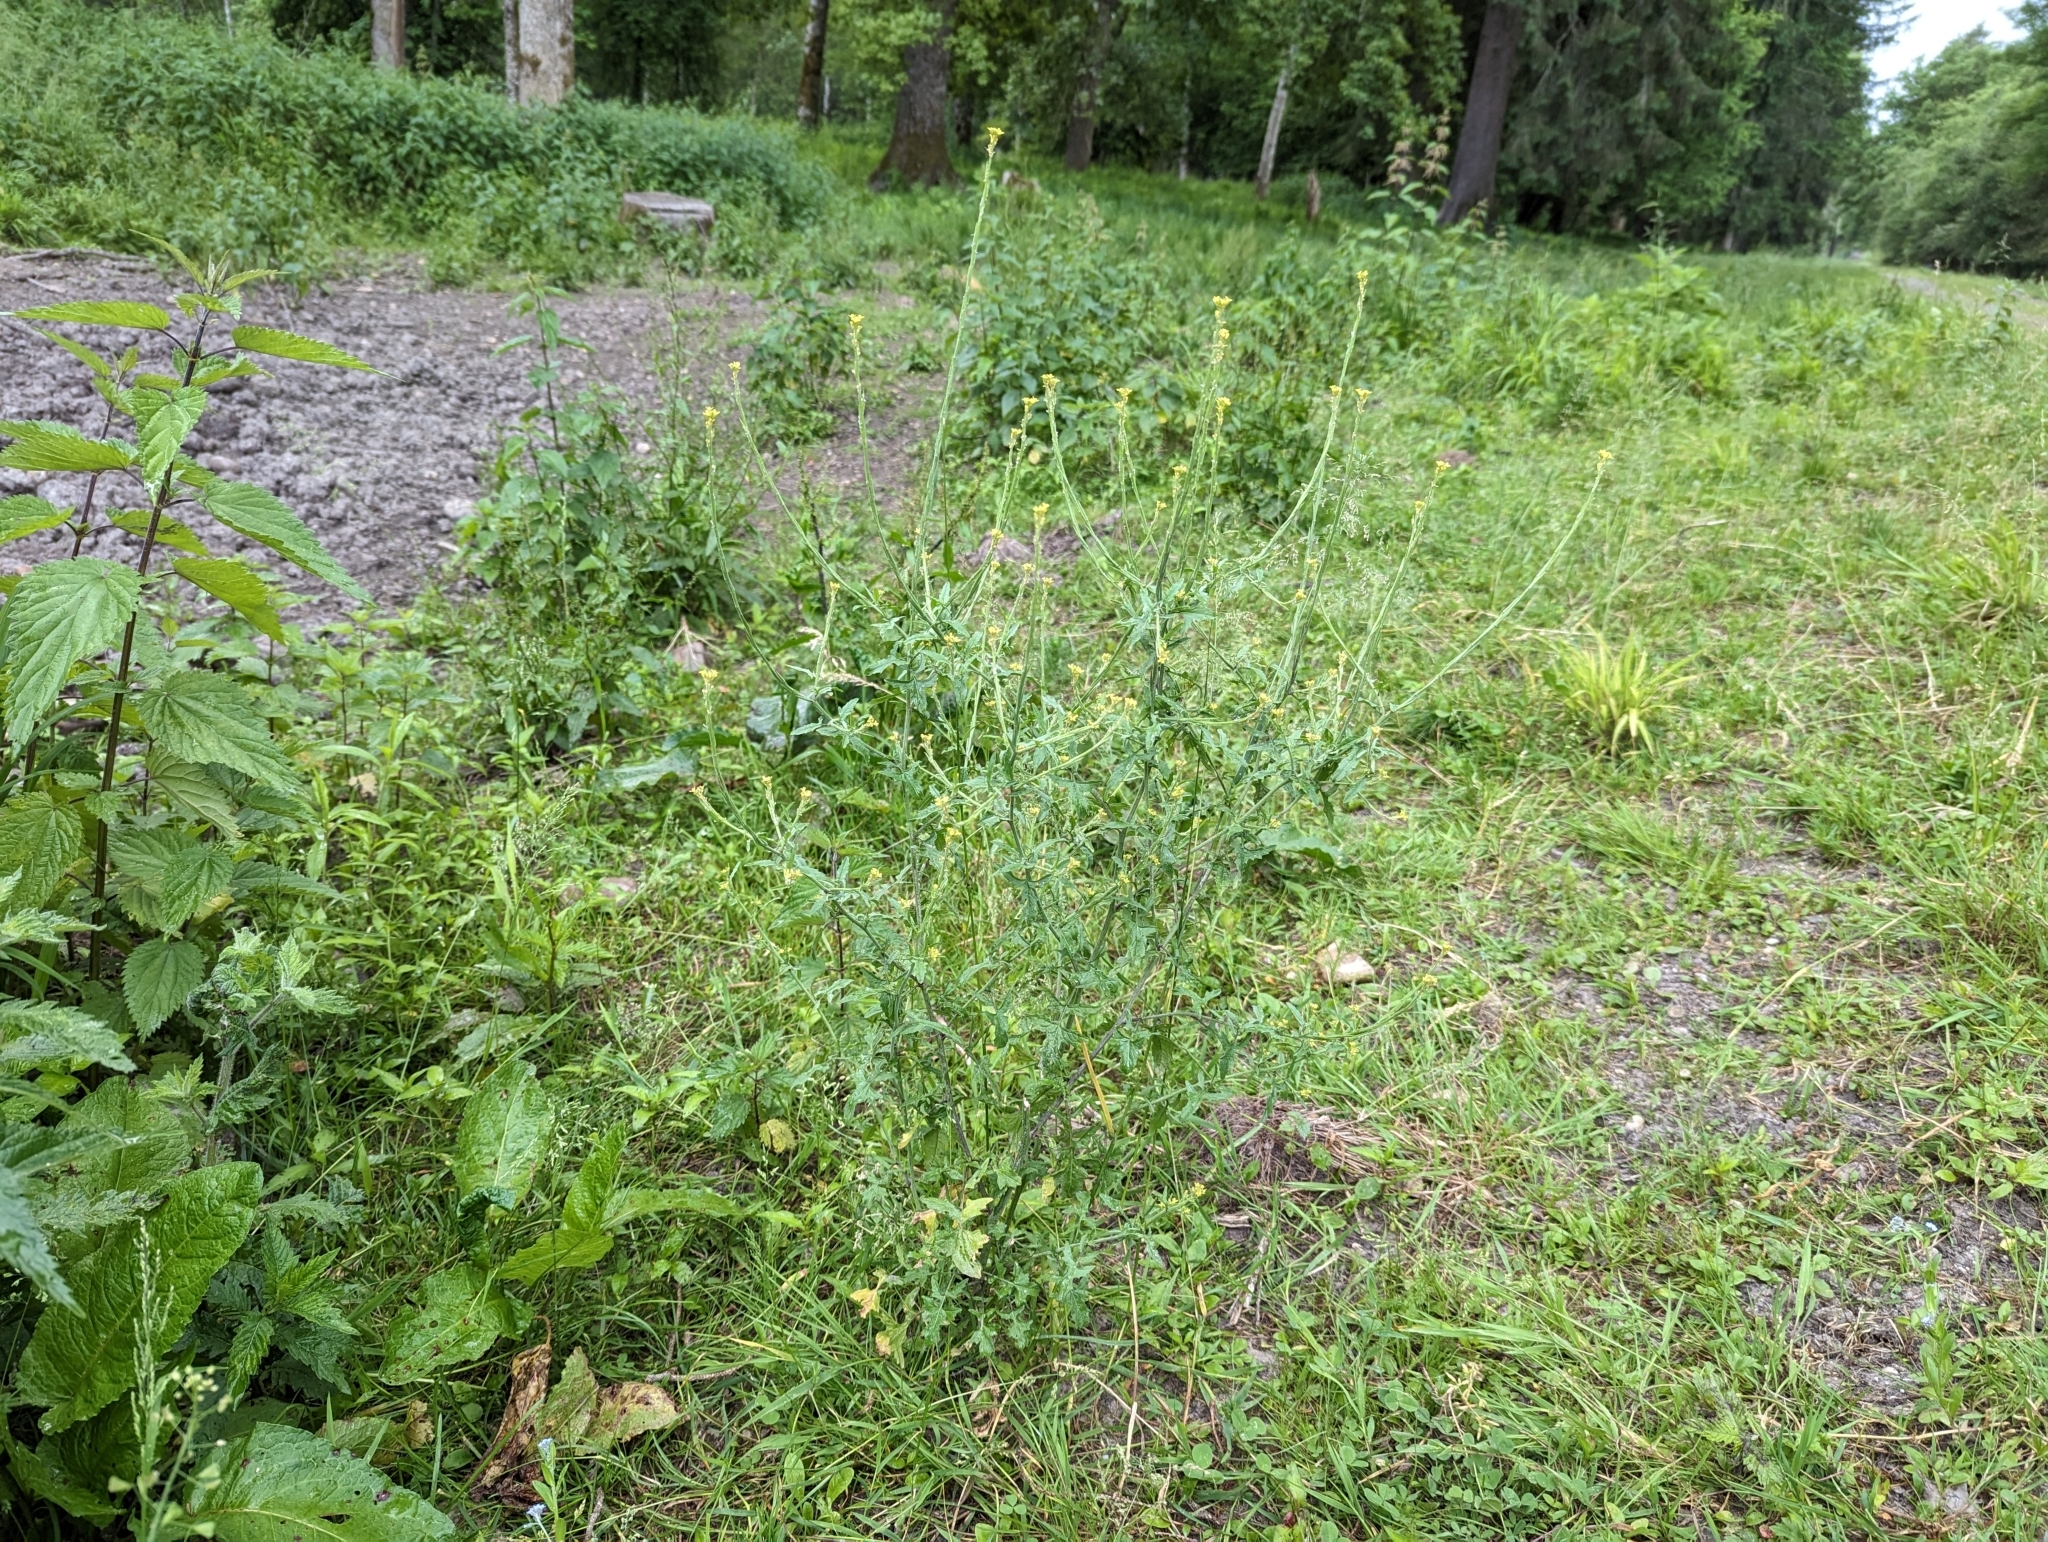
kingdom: Plantae
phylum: Tracheophyta
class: Magnoliopsida
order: Brassicales
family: Brassicaceae
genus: Sisymbrium
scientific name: Sisymbrium officinale
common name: Hedge mustard
